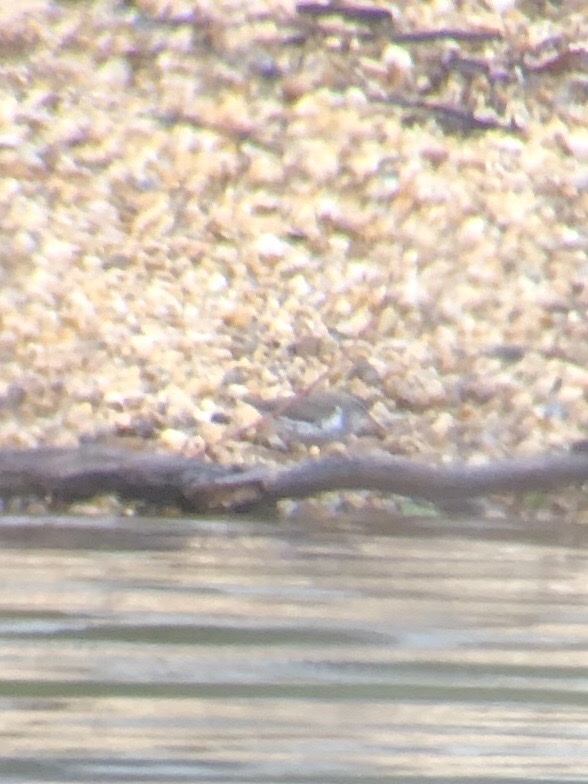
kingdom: Animalia
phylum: Chordata
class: Aves
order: Charadriiformes
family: Scolopacidae
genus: Actitis
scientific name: Actitis macularius
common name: Spotted sandpiper
